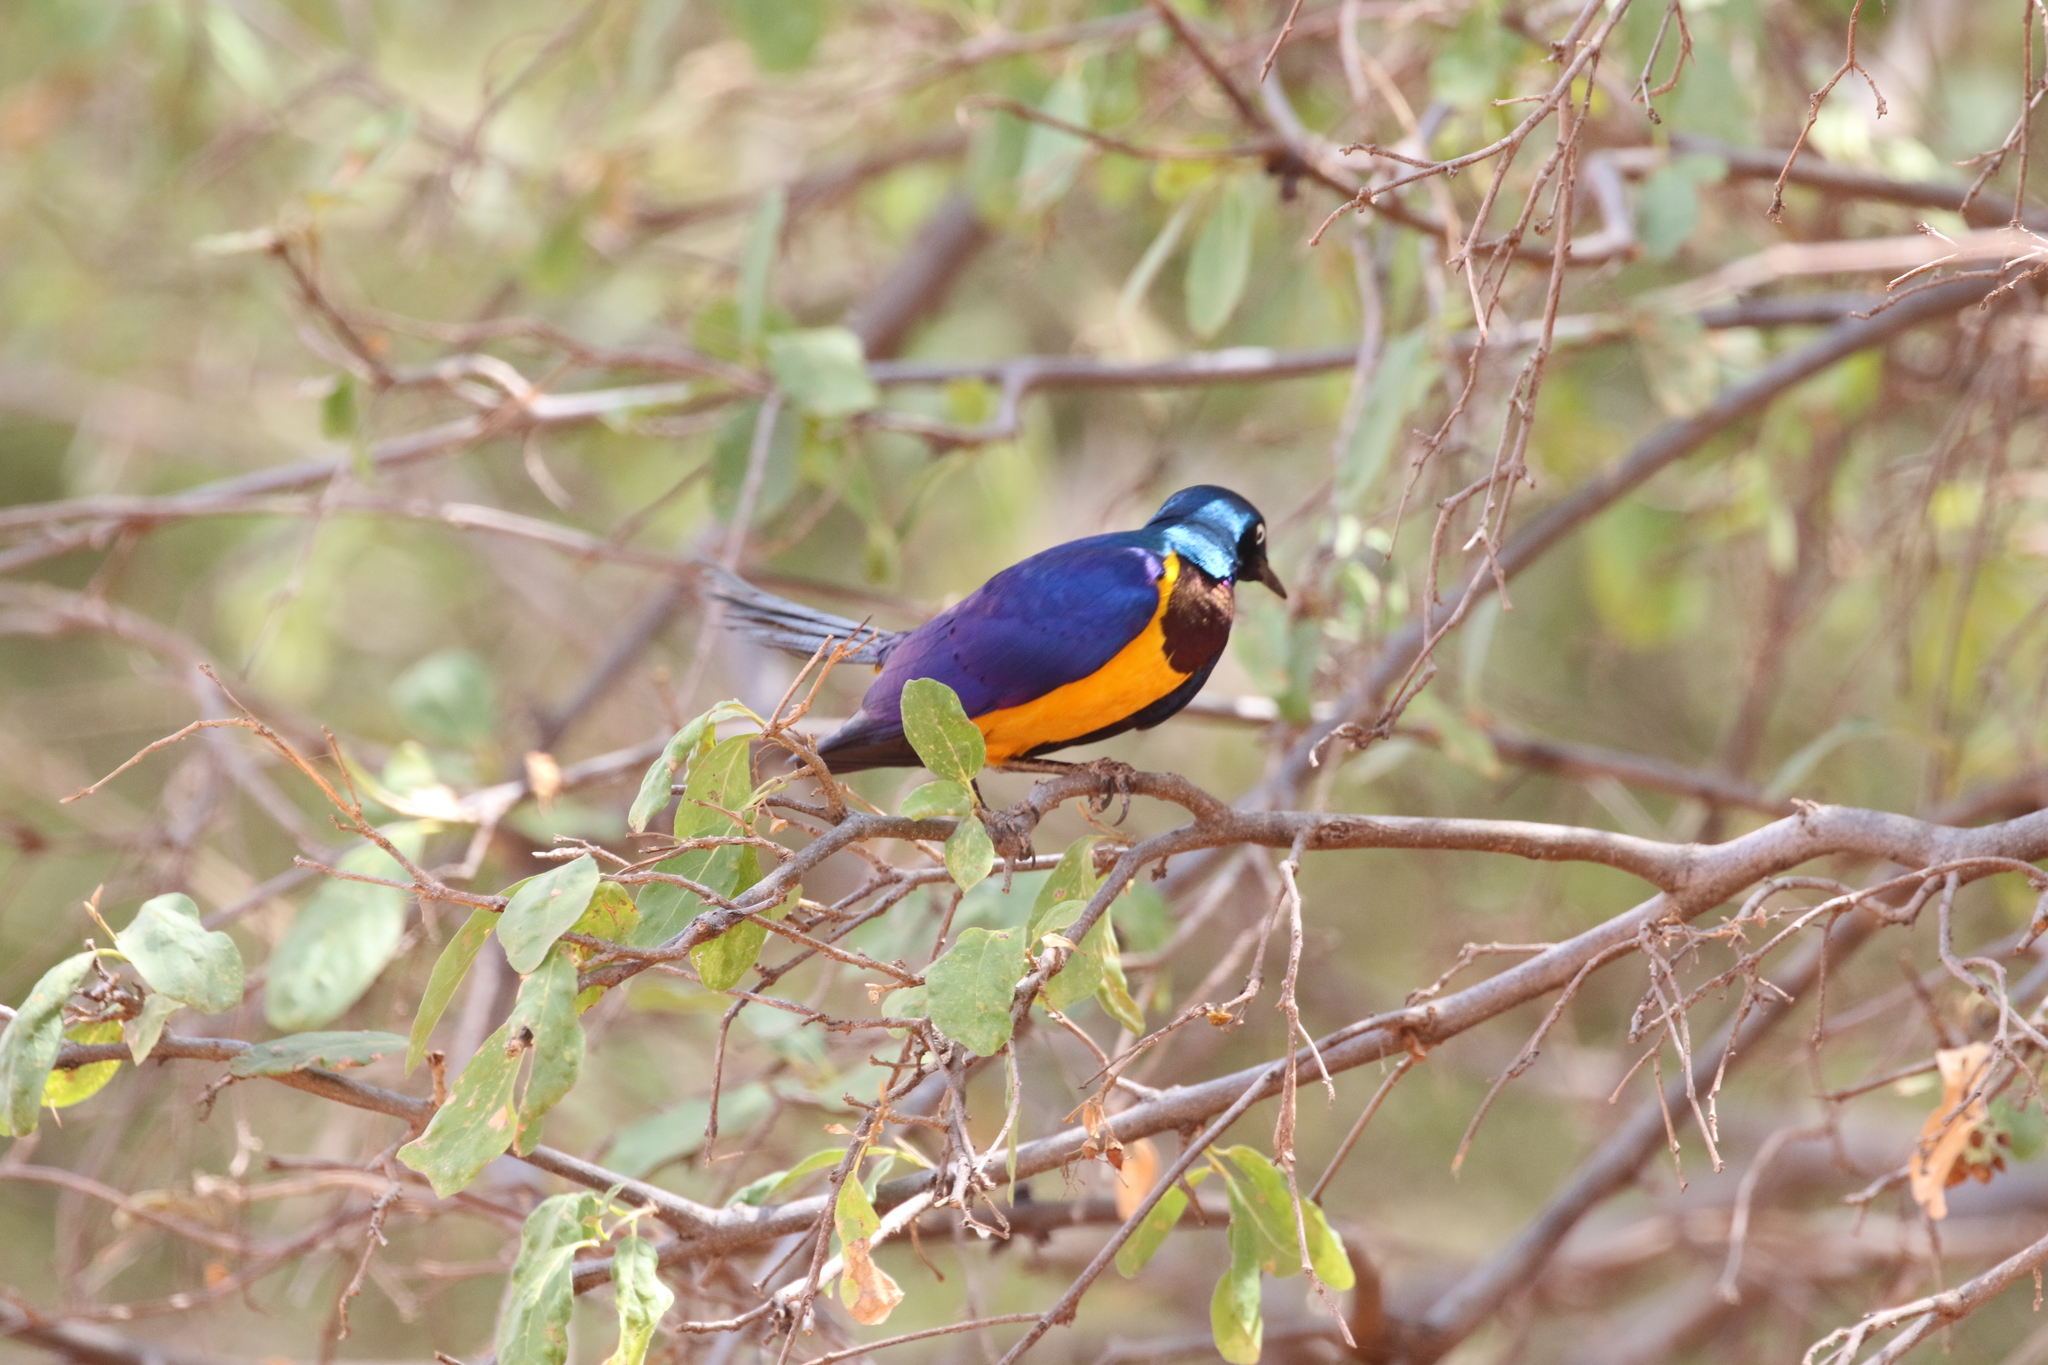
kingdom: Animalia
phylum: Chordata
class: Aves
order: Passeriformes
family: Sturnidae
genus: Lamprotornis
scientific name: Lamprotornis regius
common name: Golden-breasted starling
